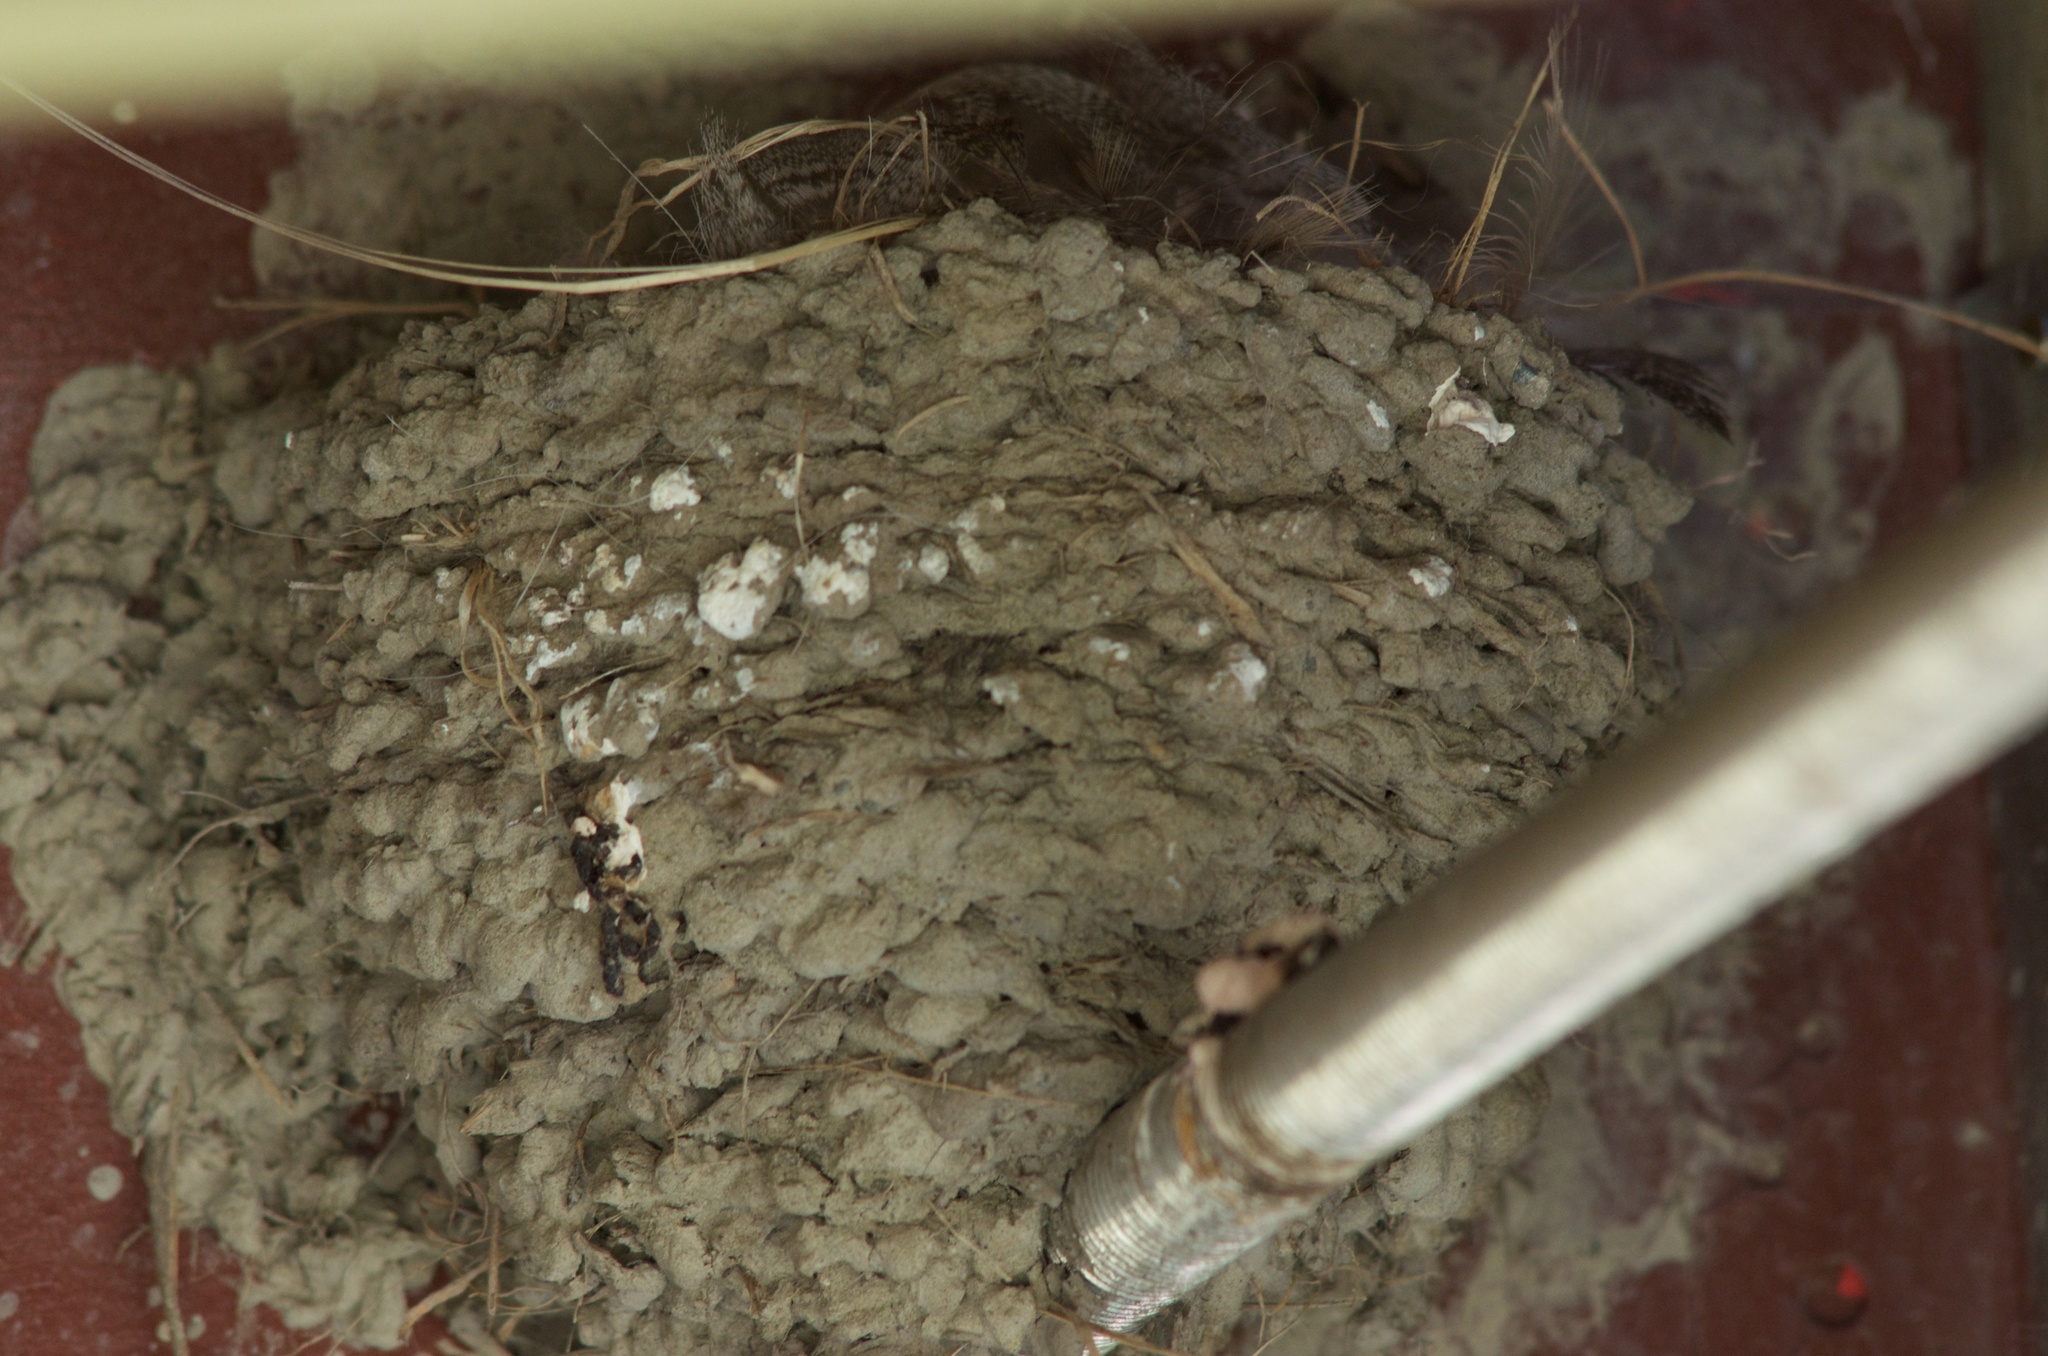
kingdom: Animalia
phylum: Chordata
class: Aves
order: Passeriformes
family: Hirundinidae
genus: Hirundo
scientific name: Hirundo neoxena
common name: Welcome swallow
